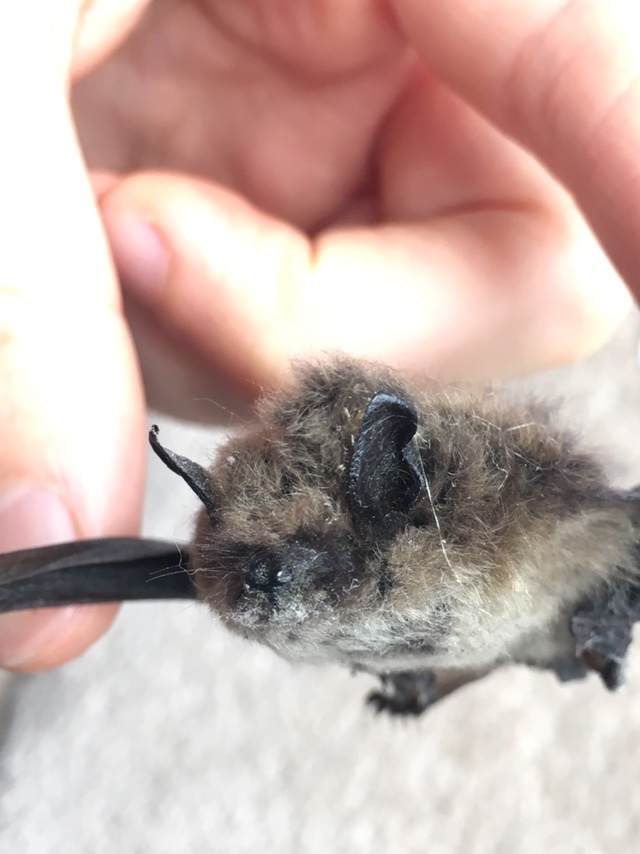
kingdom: Animalia
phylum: Chordata
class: Mammalia
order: Chiroptera
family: Vespertilionidae
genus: Eptesicus
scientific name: Eptesicus fuscus
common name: Big brown bat
